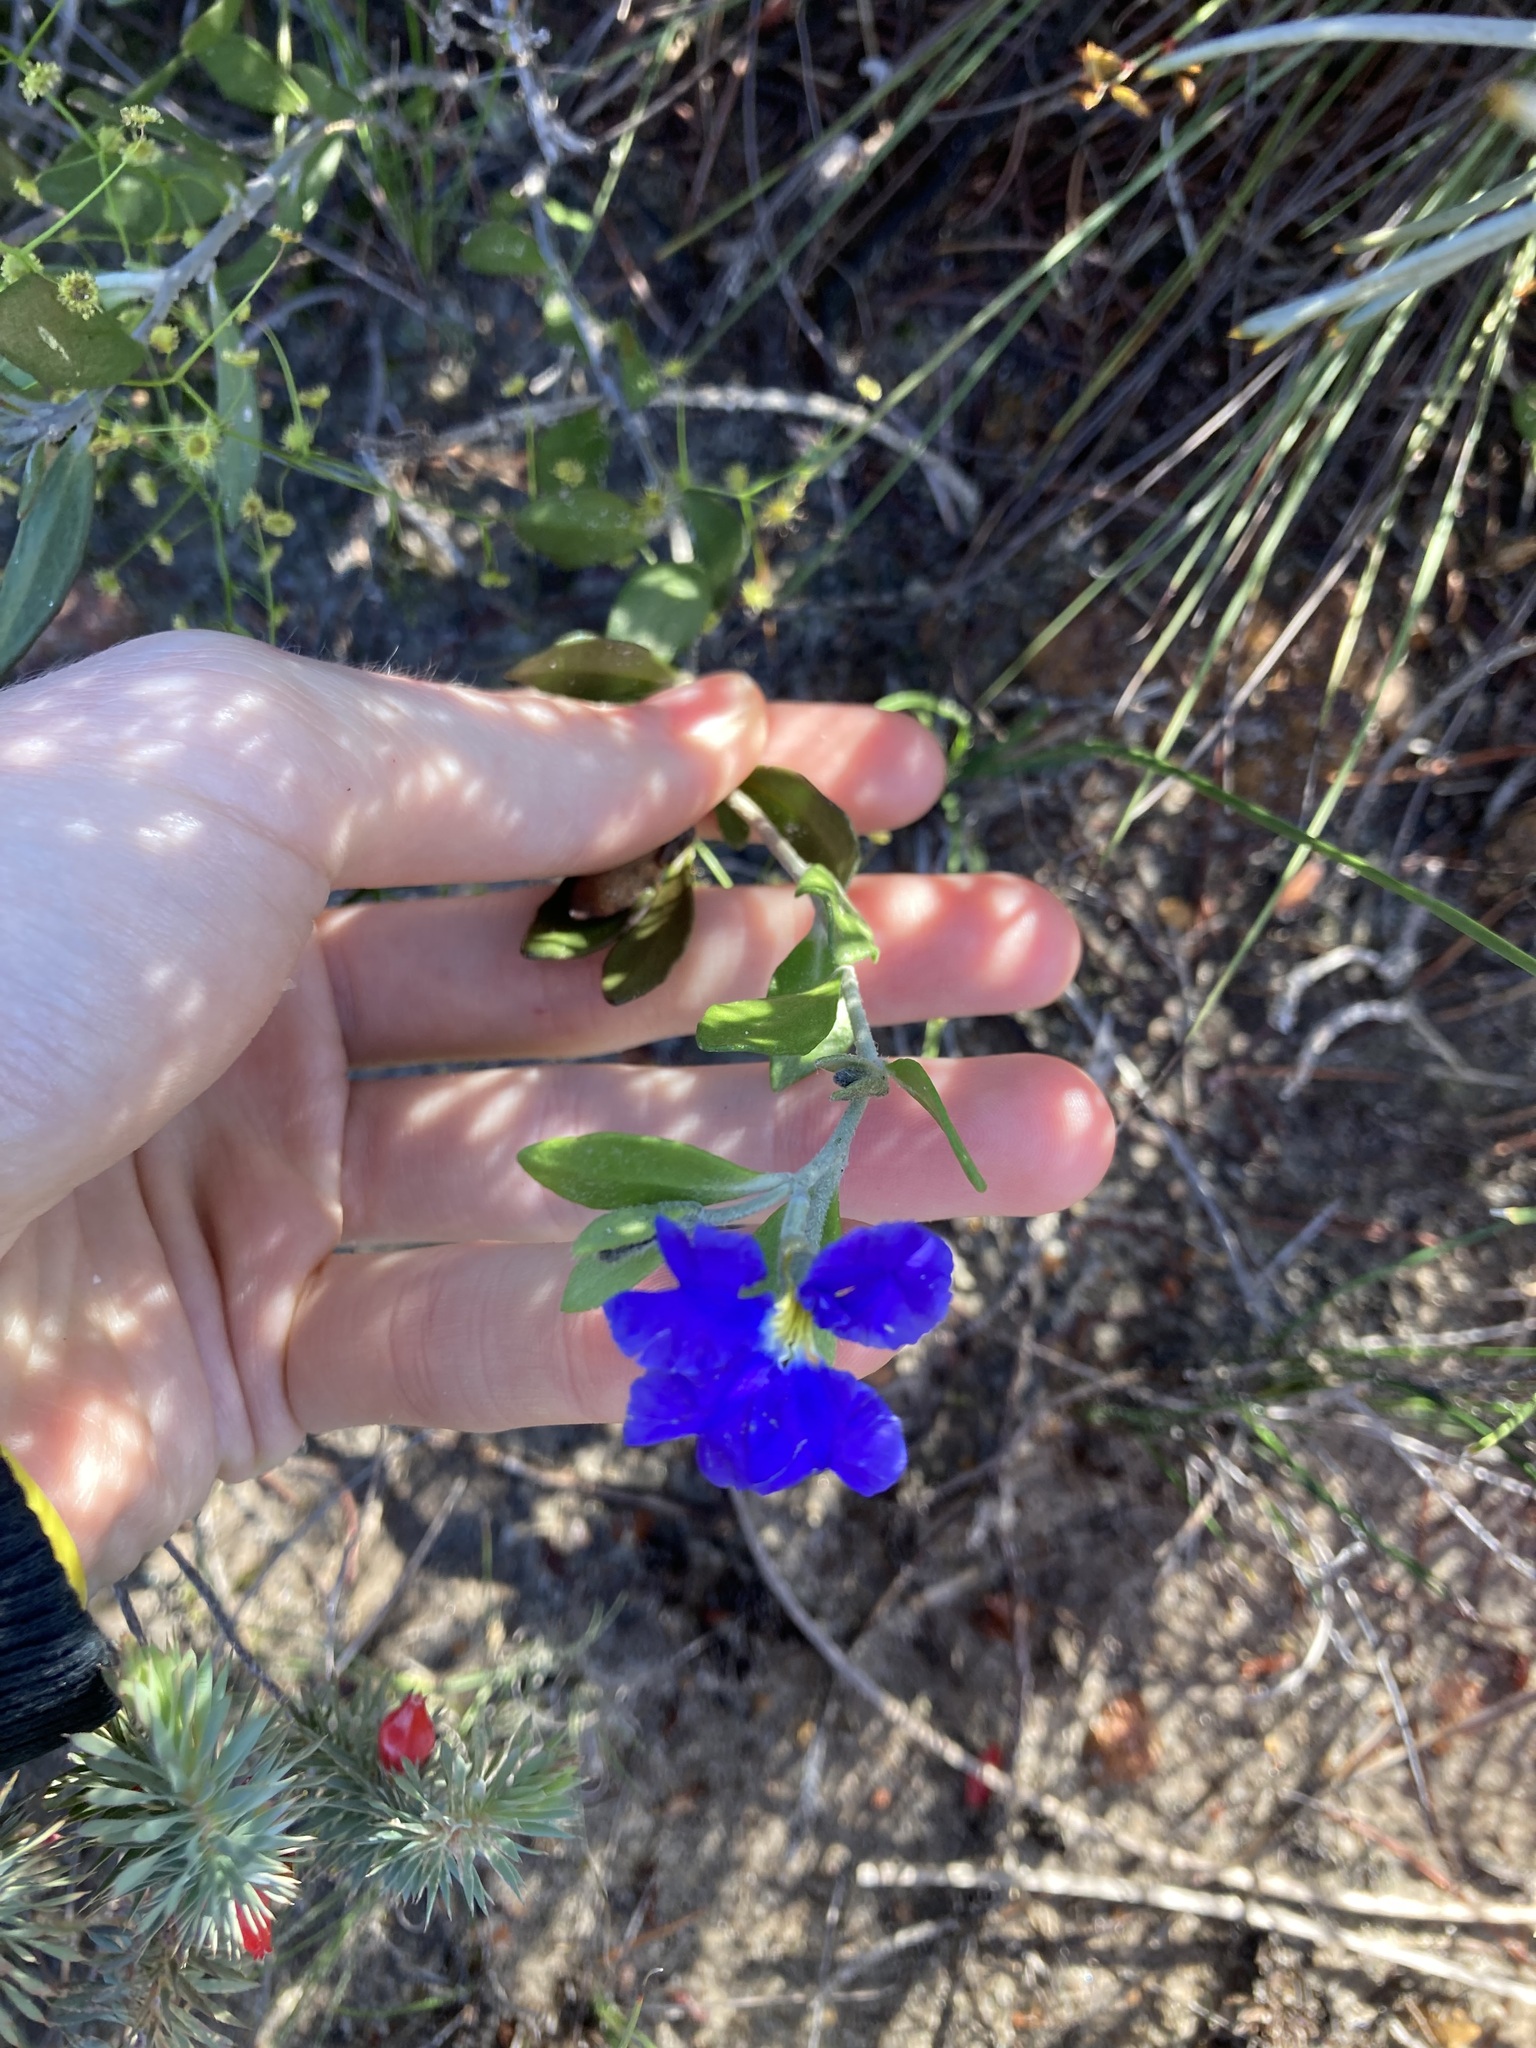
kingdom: Plantae
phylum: Tracheophyta
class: Magnoliopsida
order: Asterales
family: Goodeniaceae
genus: Dampiera
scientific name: Dampiera linearis
